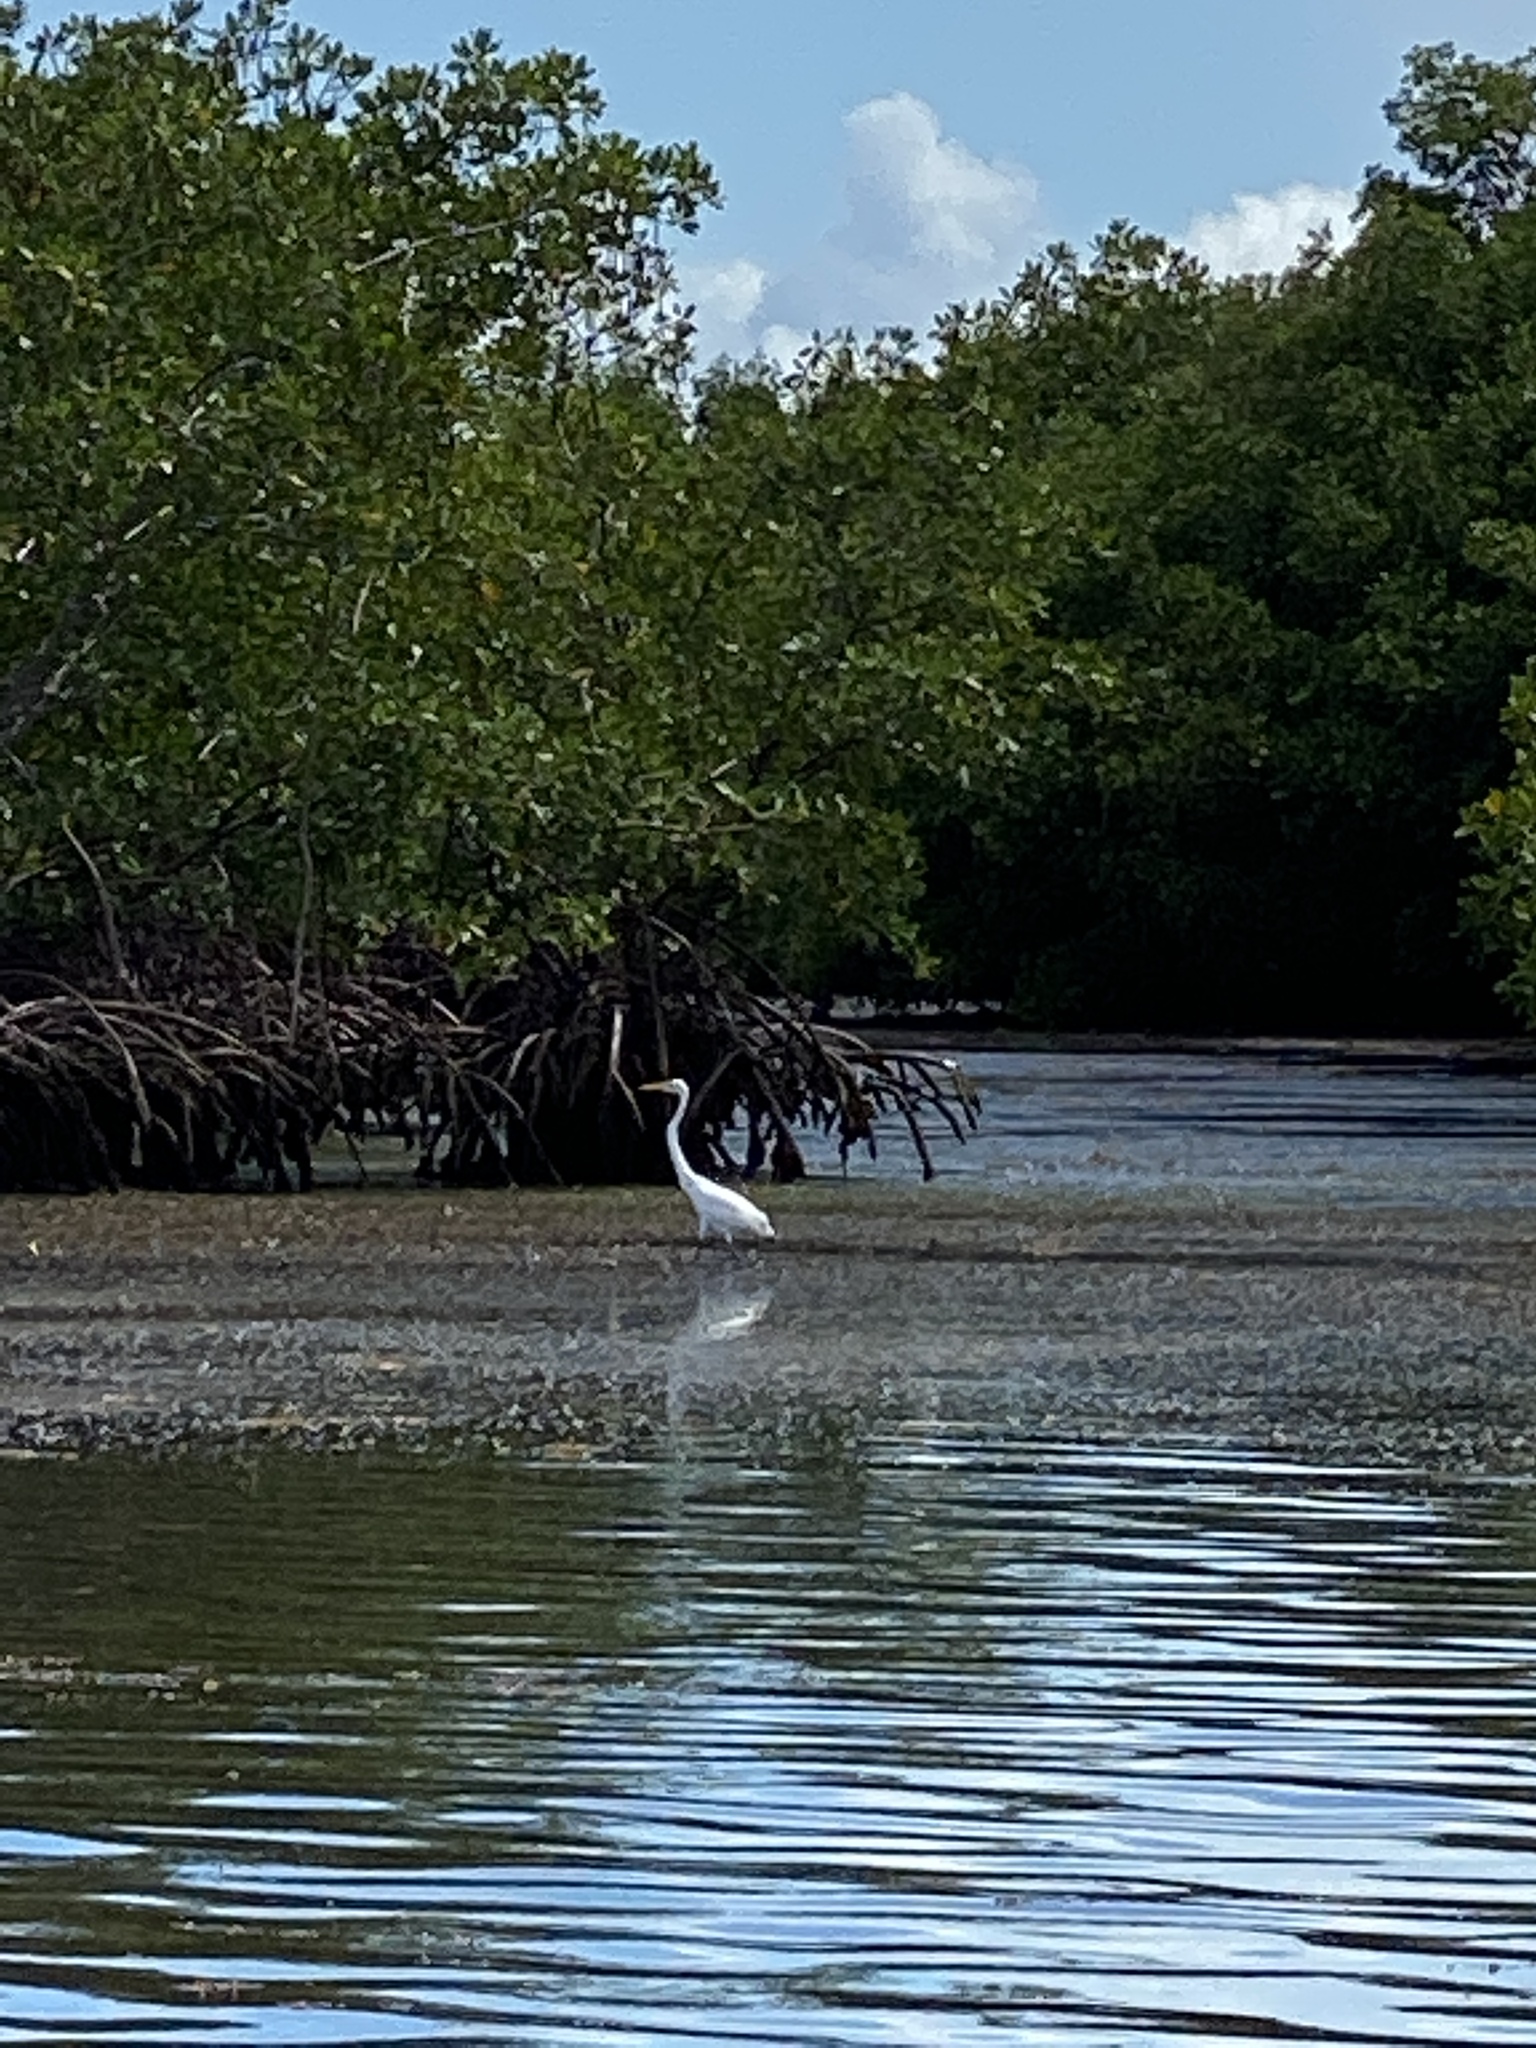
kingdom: Animalia
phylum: Chordata
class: Aves
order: Pelecaniformes
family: Ardeidae
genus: Ardea
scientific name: Ardea alba
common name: Great egret
